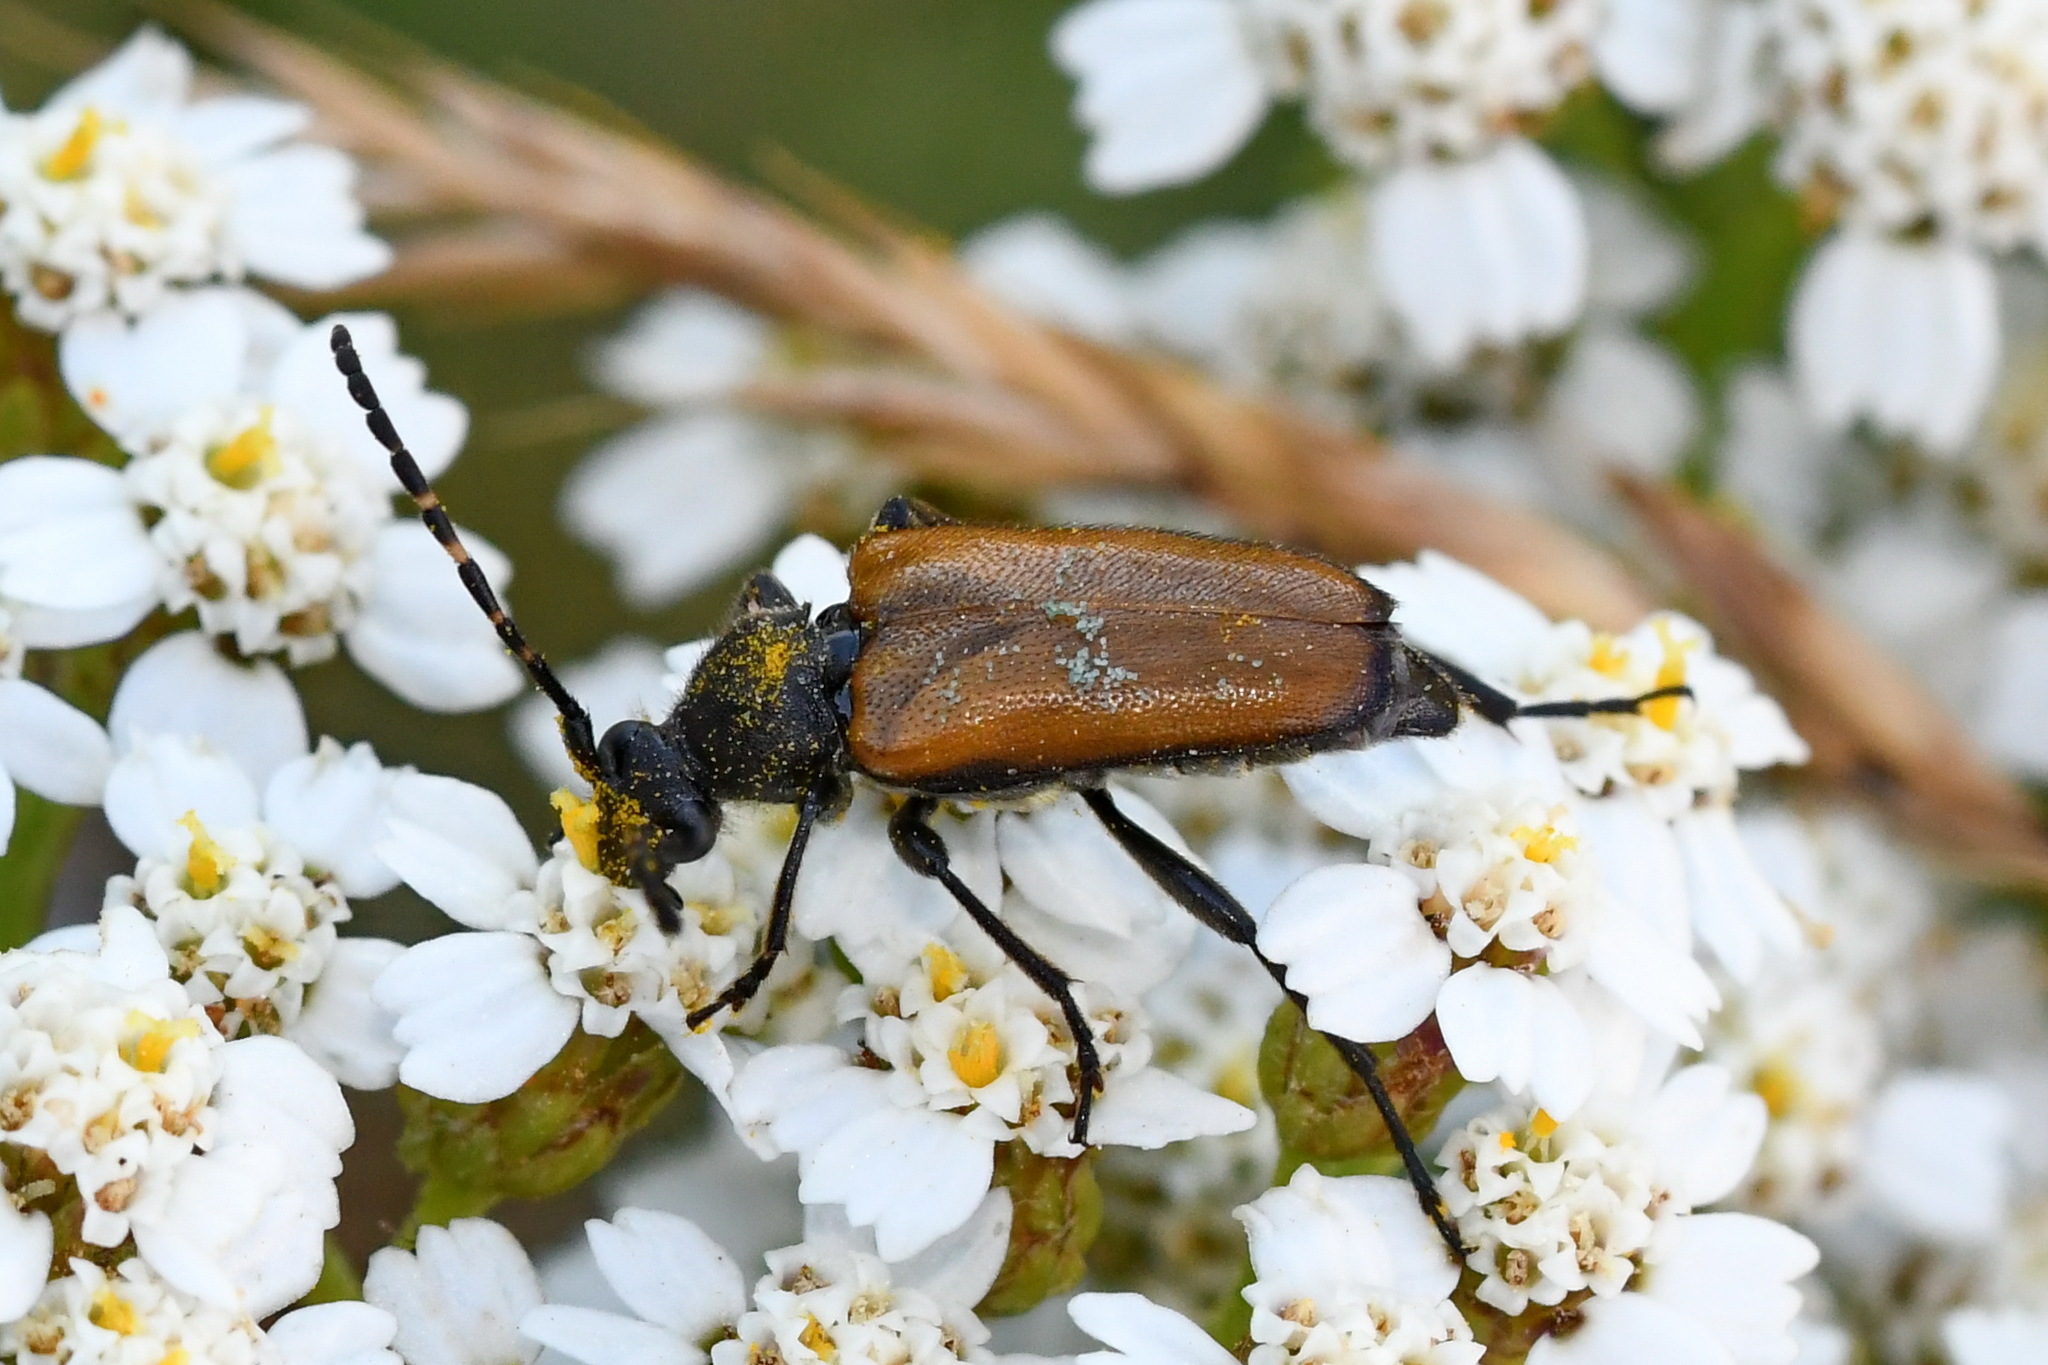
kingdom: Animalia
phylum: Arthropoda
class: Insecta
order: Coleoptera
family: Cerambycidae
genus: Paracorymbia
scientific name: Paracorymbia maculicornis
